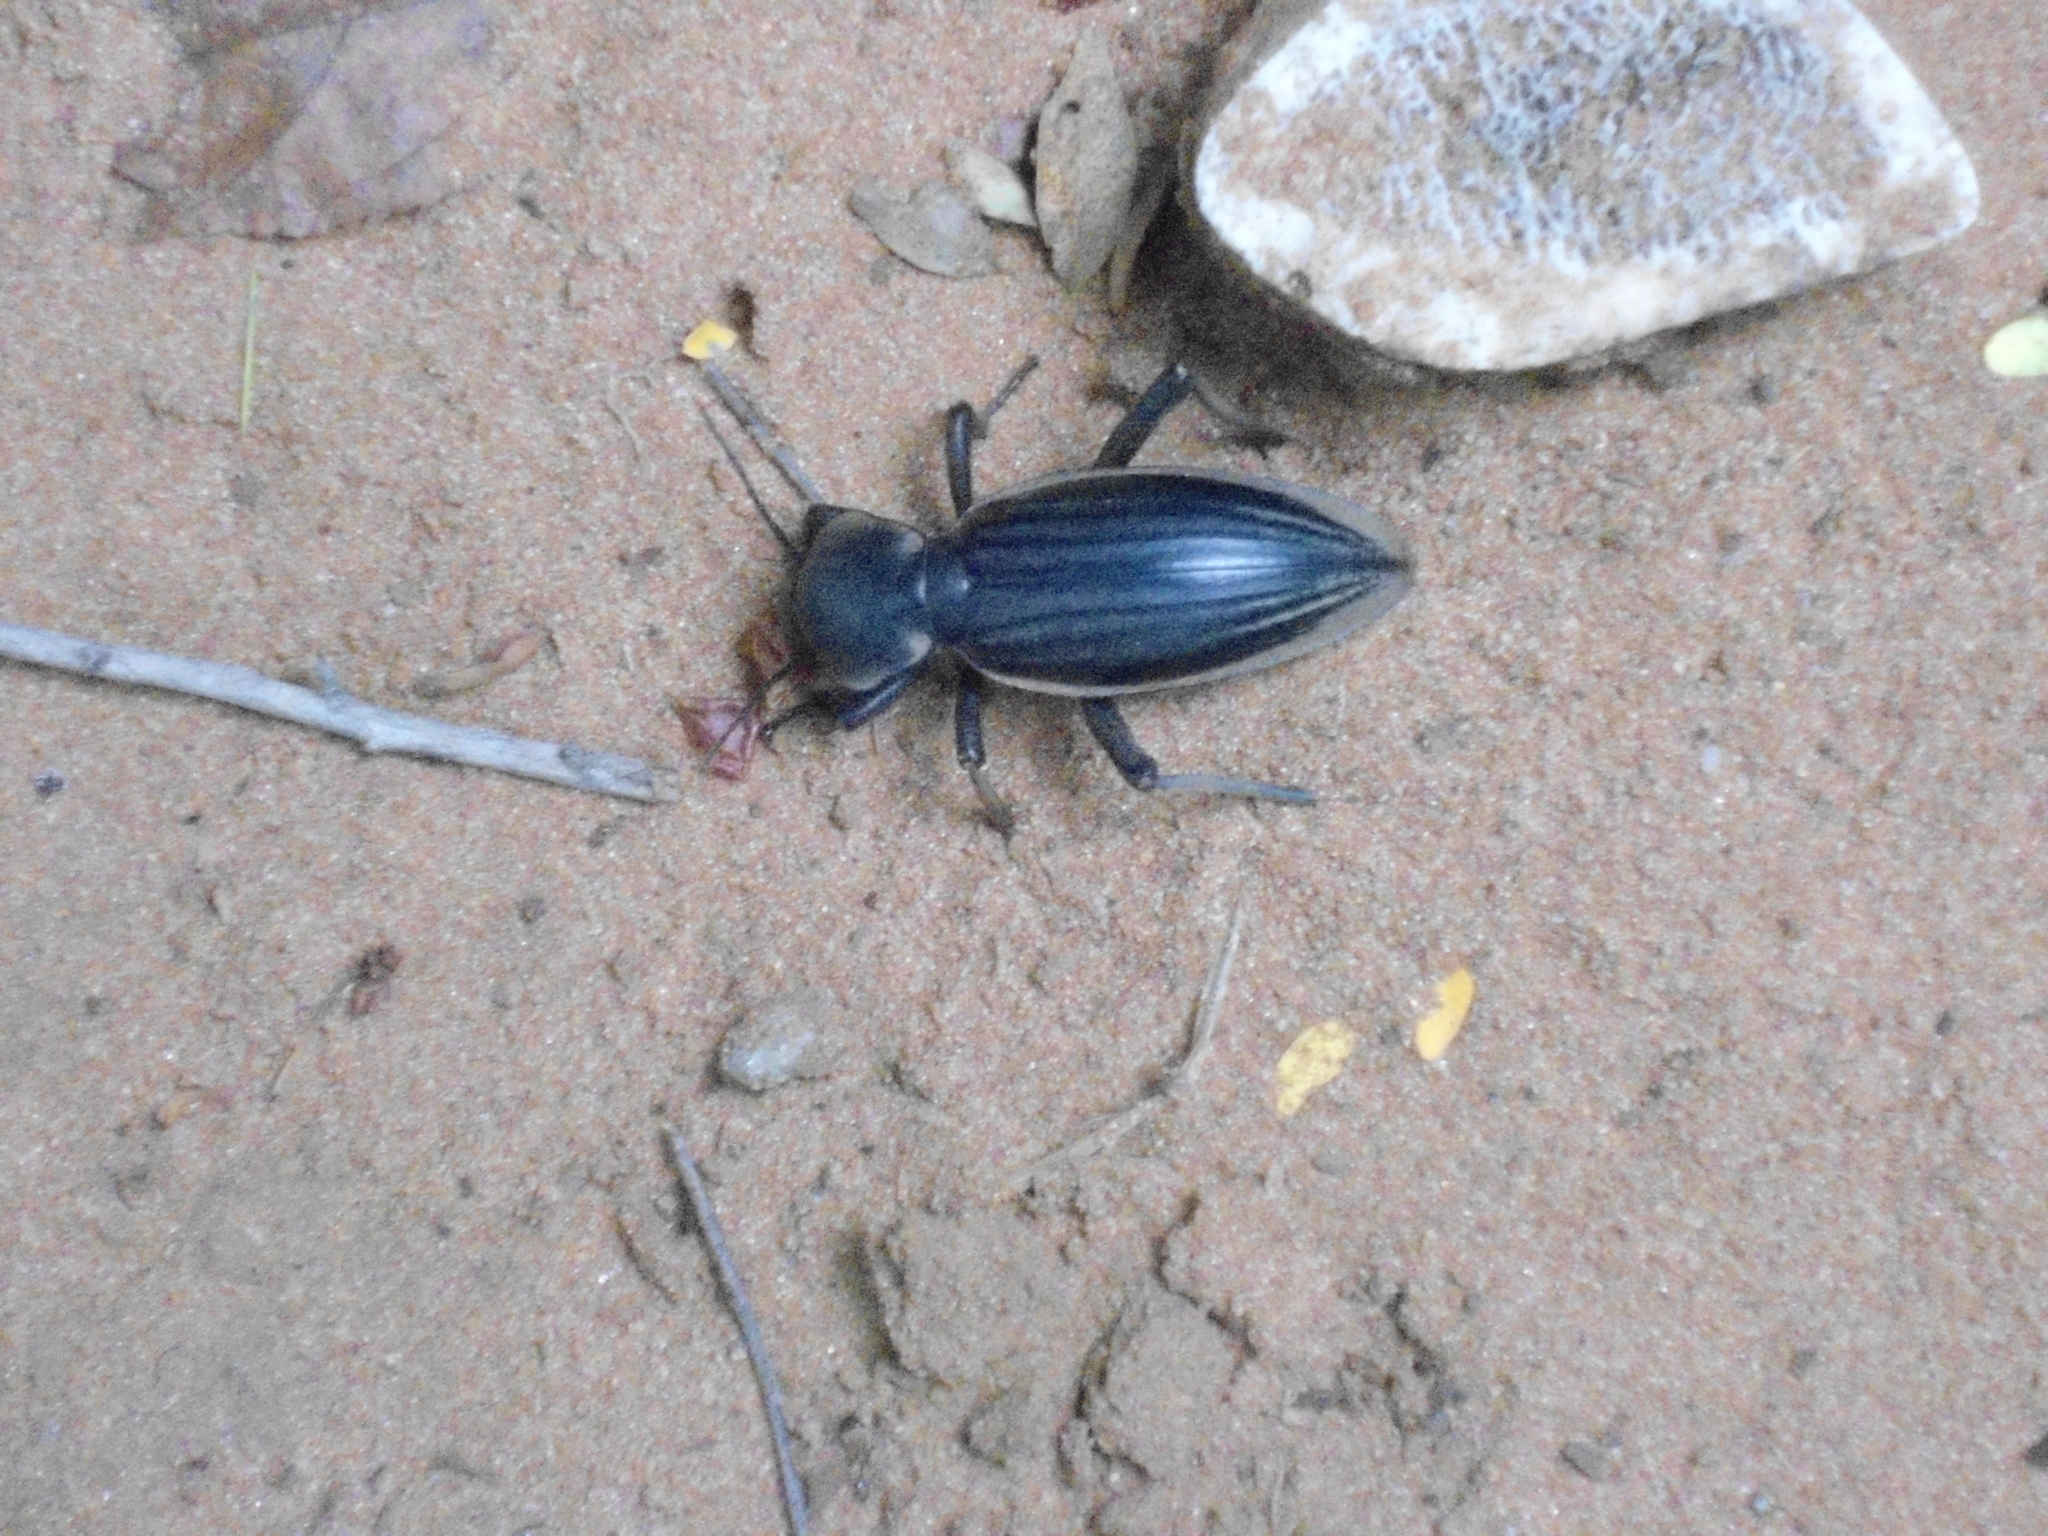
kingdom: Animalia
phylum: Arthropoda
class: Insecta
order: Coleoptera
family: Tenebrionidae
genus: Chiliarchum
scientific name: Chiliarchum
